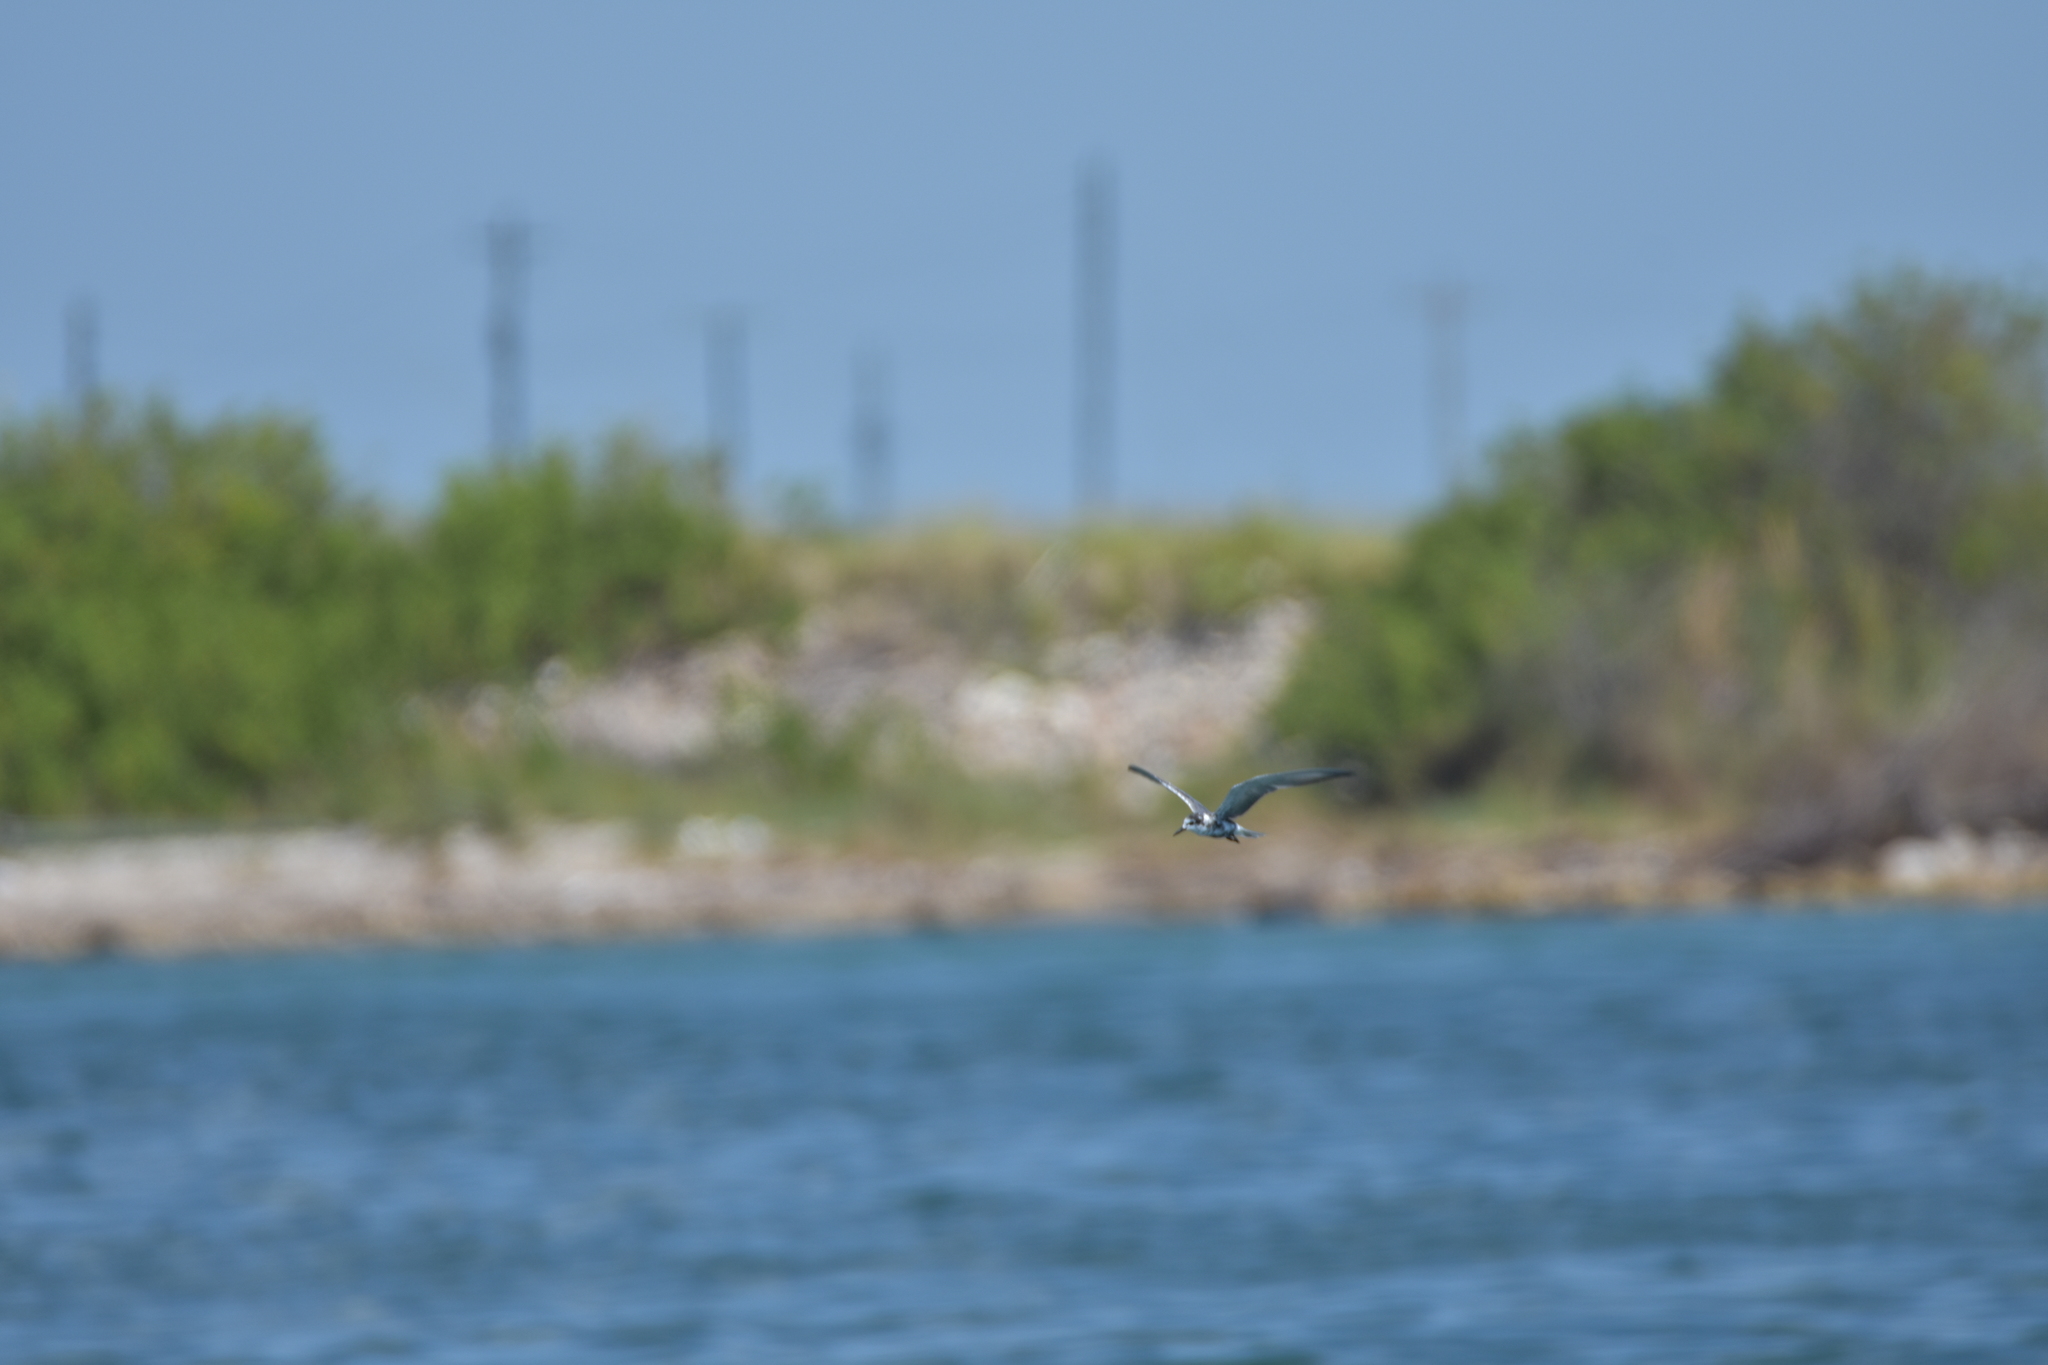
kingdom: Animalia
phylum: Chordata
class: Aves
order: Charadriiformes
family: Laridae
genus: Chlidonias
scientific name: Chlidonias niger
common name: Black tern
